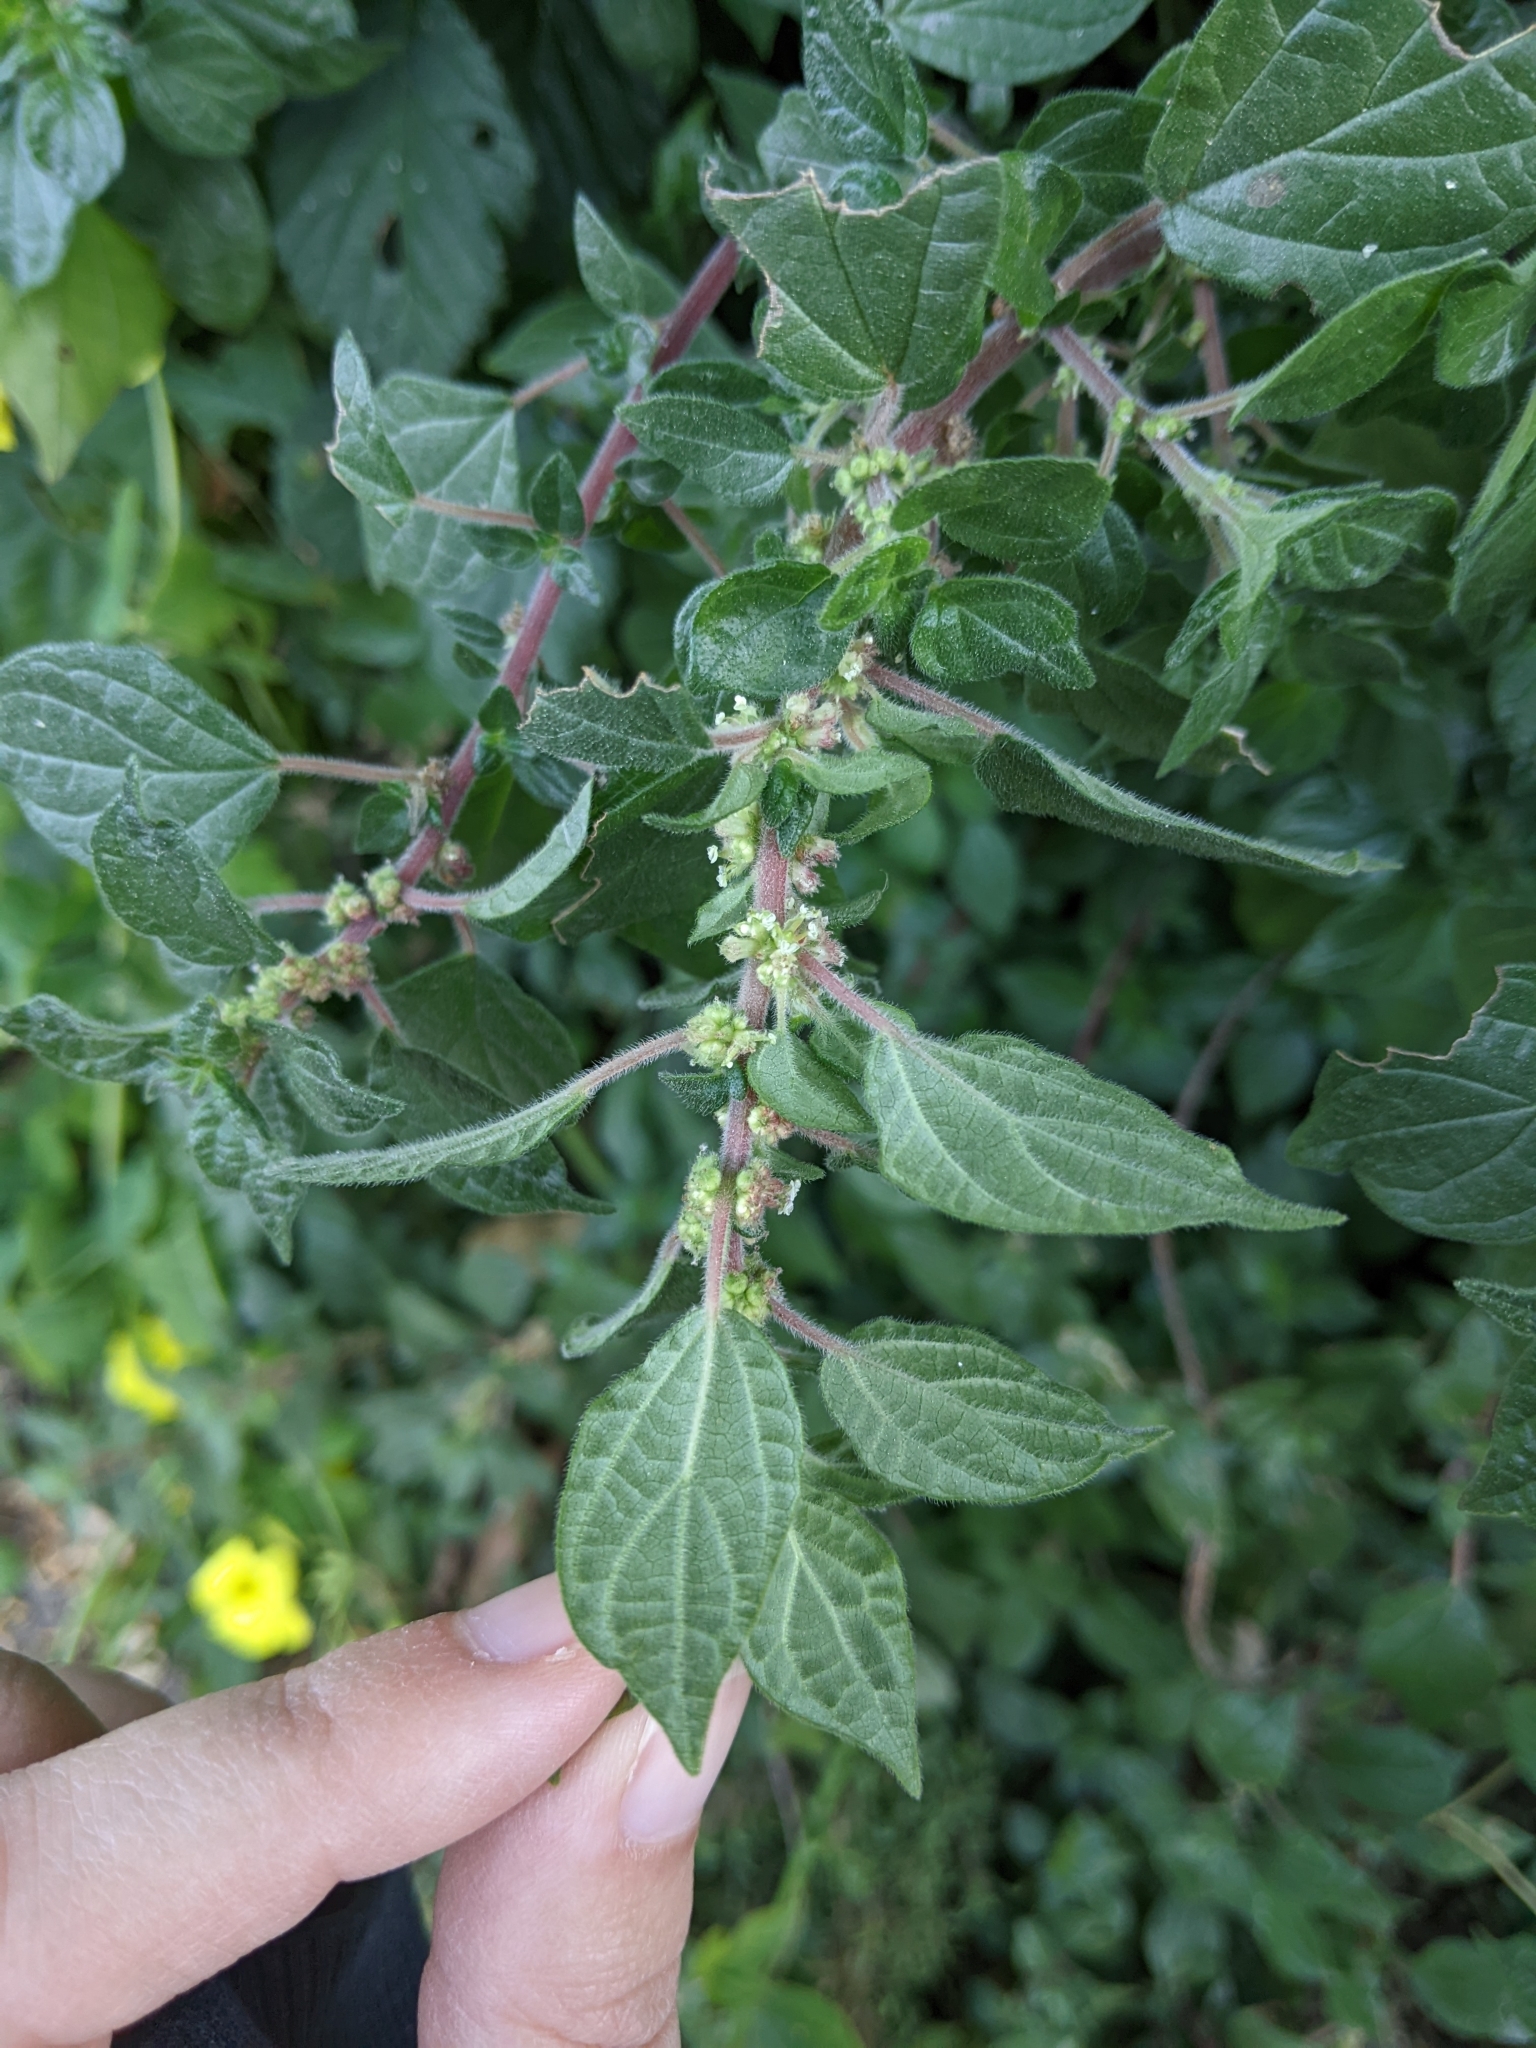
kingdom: Plantae
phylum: Tracheophyta
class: Magnoliopsida
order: Rosales
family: Urticaceae
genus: Parietaria
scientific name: Parietaria judaica
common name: Pellitory-of-the-wall
